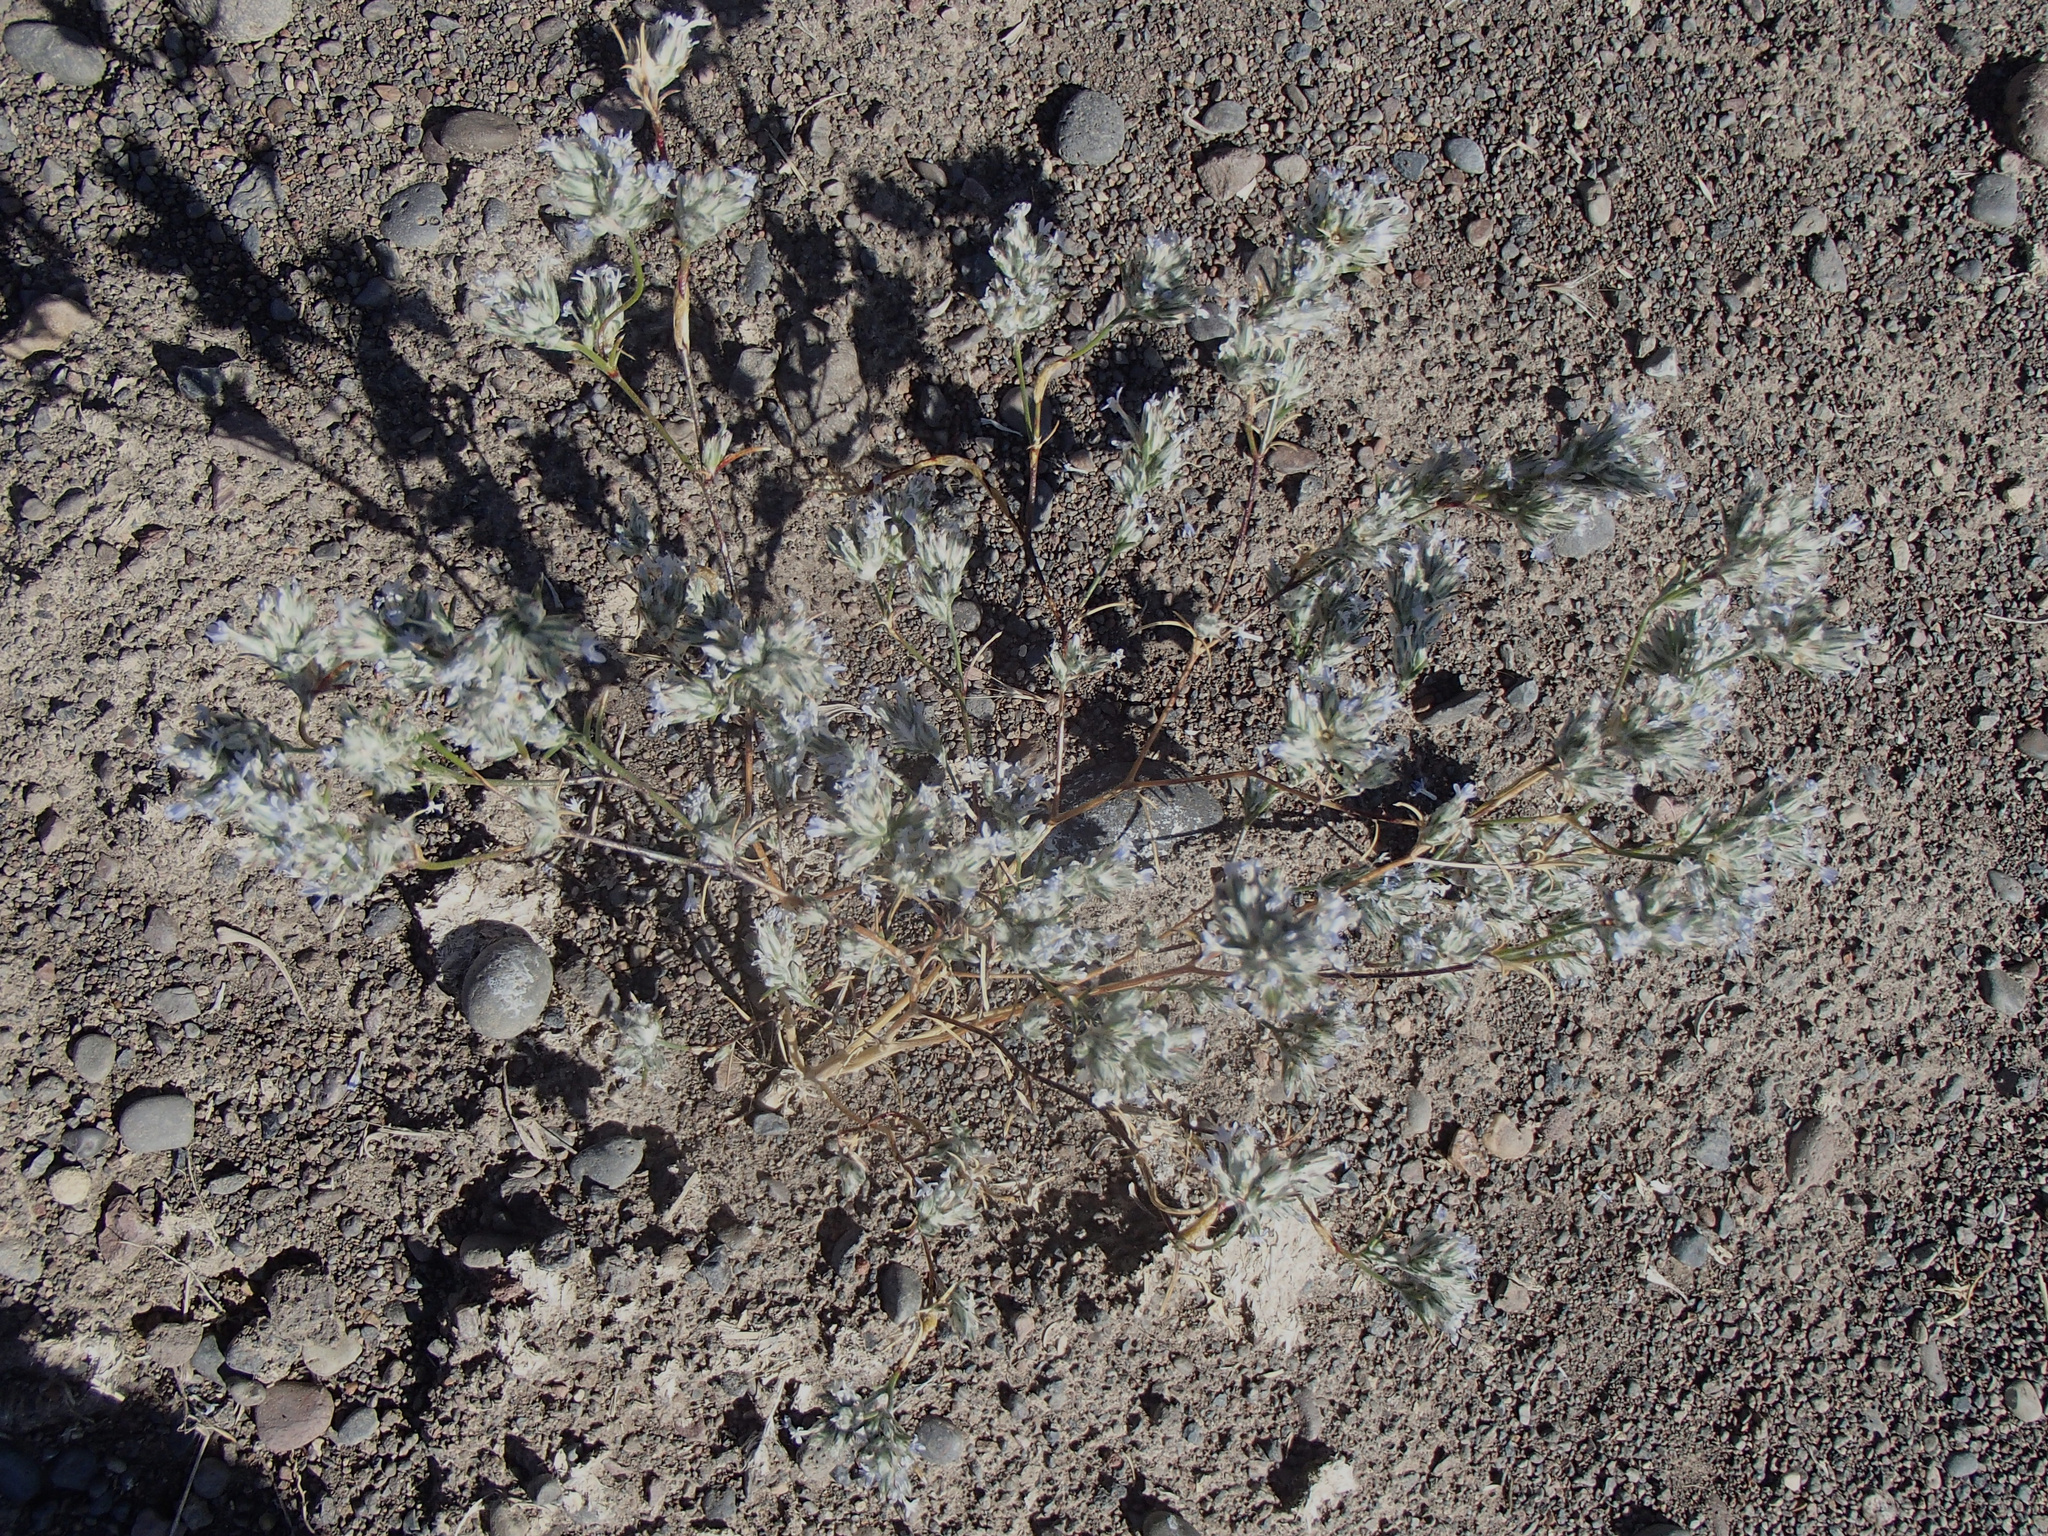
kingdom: Plantae
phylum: Tracheophyta
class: Magnoliopsida
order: Ericales
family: Polemoniaceae
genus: Eriastrum
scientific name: Eriastrum signatum
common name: Great basin woollystar
